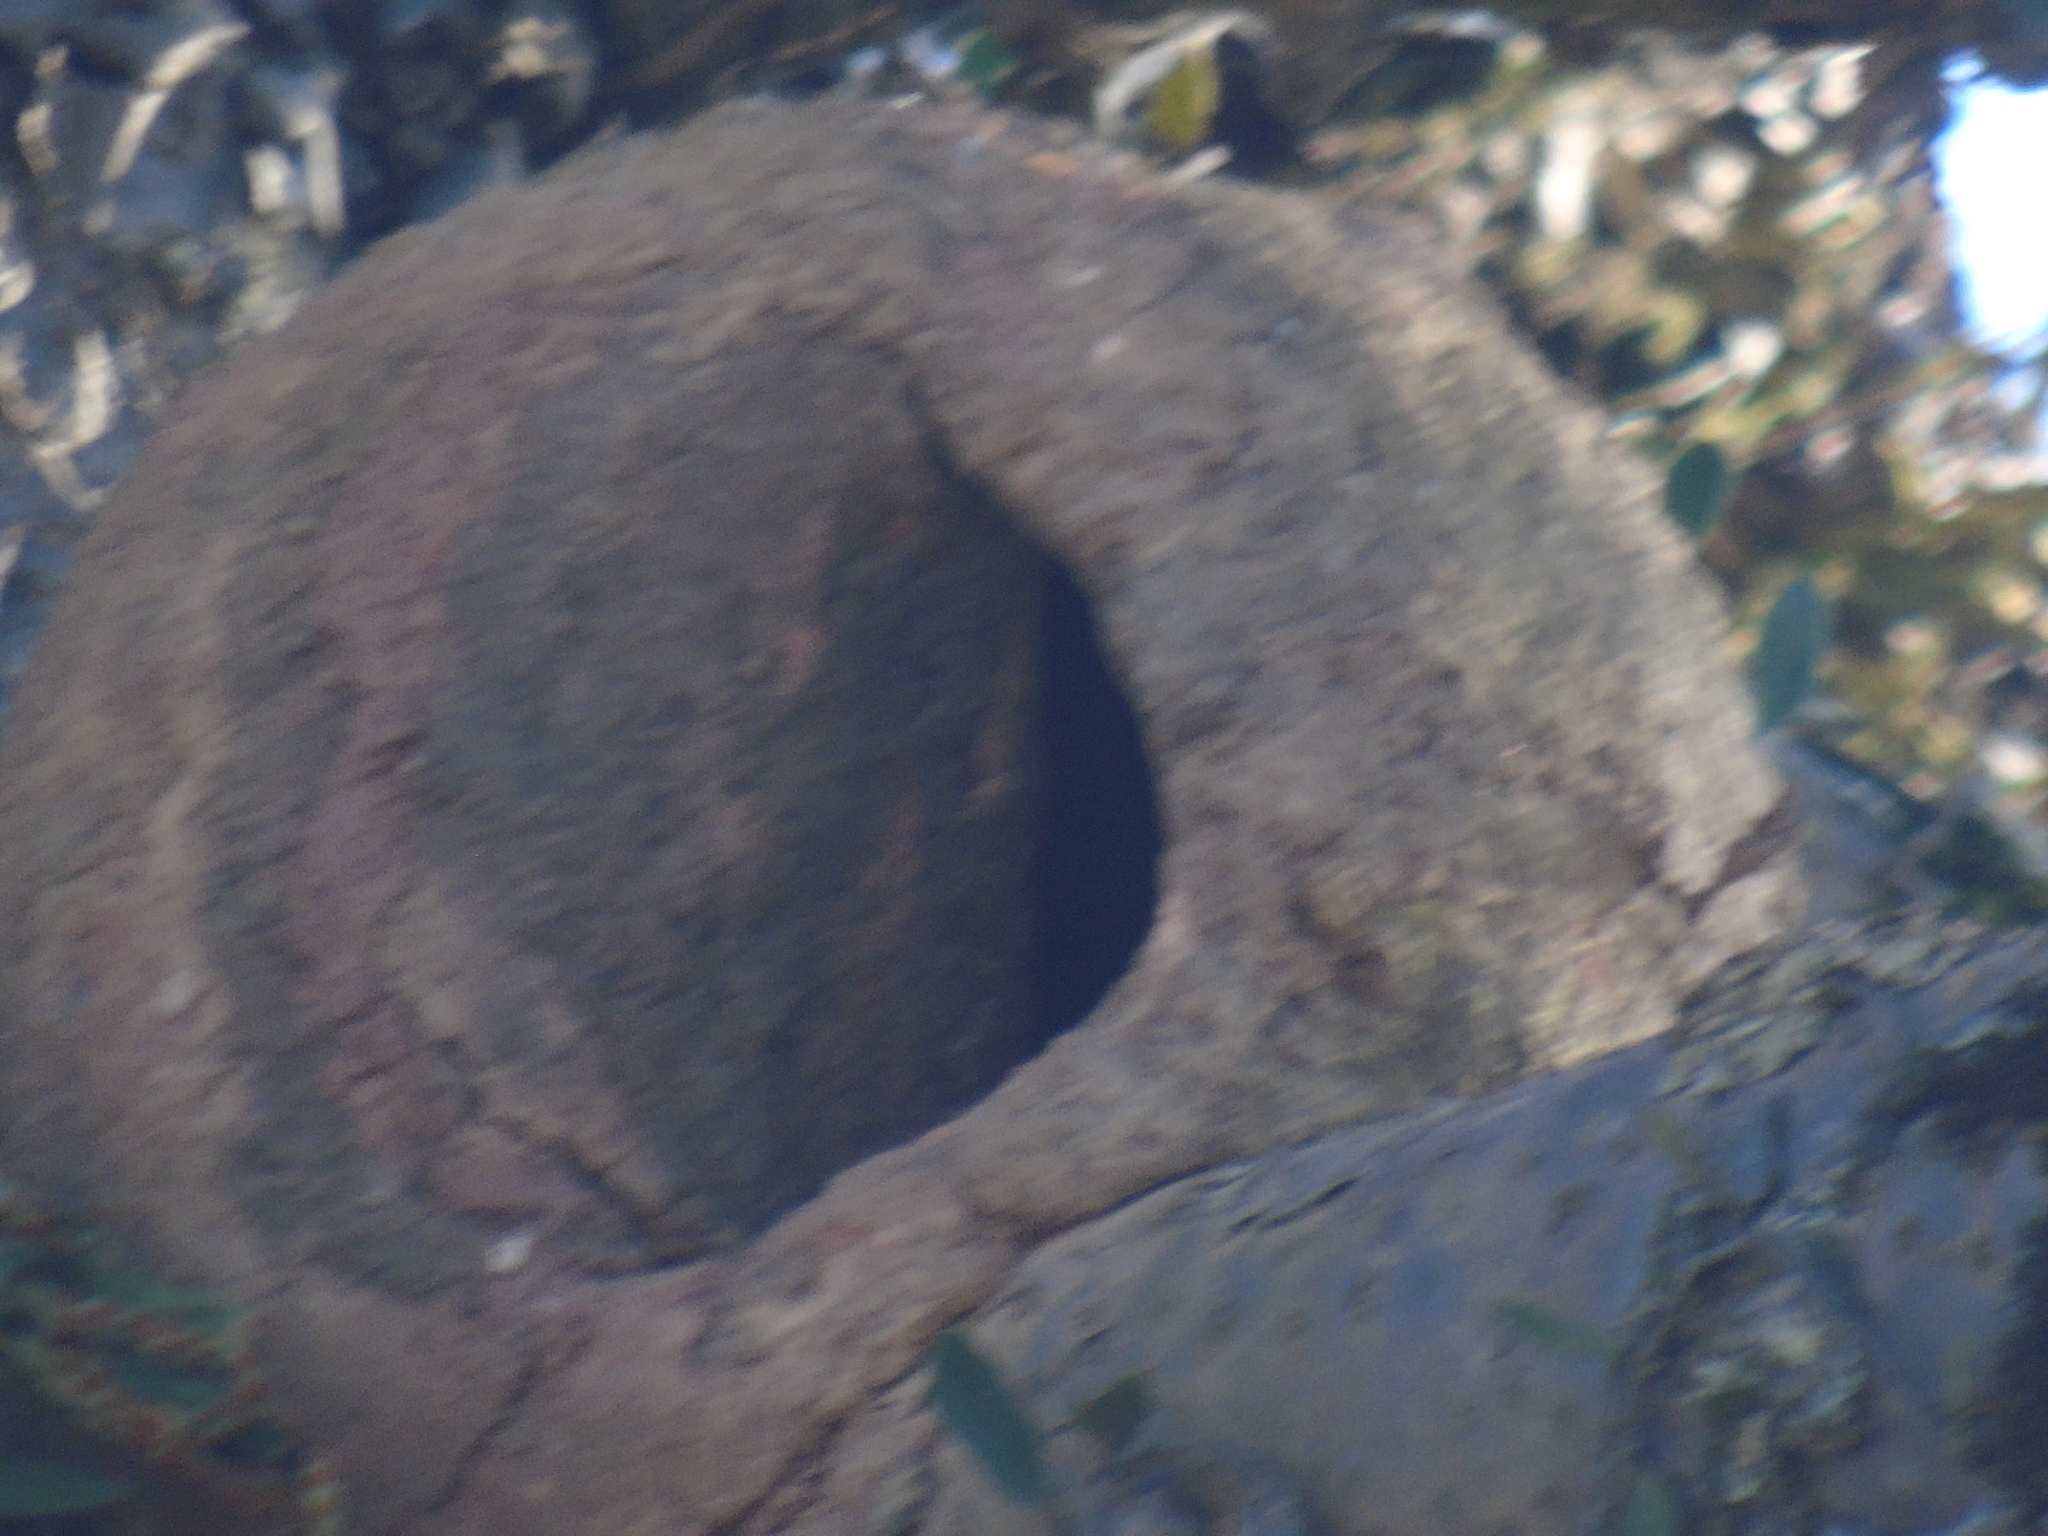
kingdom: Animalia
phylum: Chordata
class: Aves
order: Passeriformes
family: Furnariidae
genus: Furnarius
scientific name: Furnarius rufus
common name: Rufous hornero
